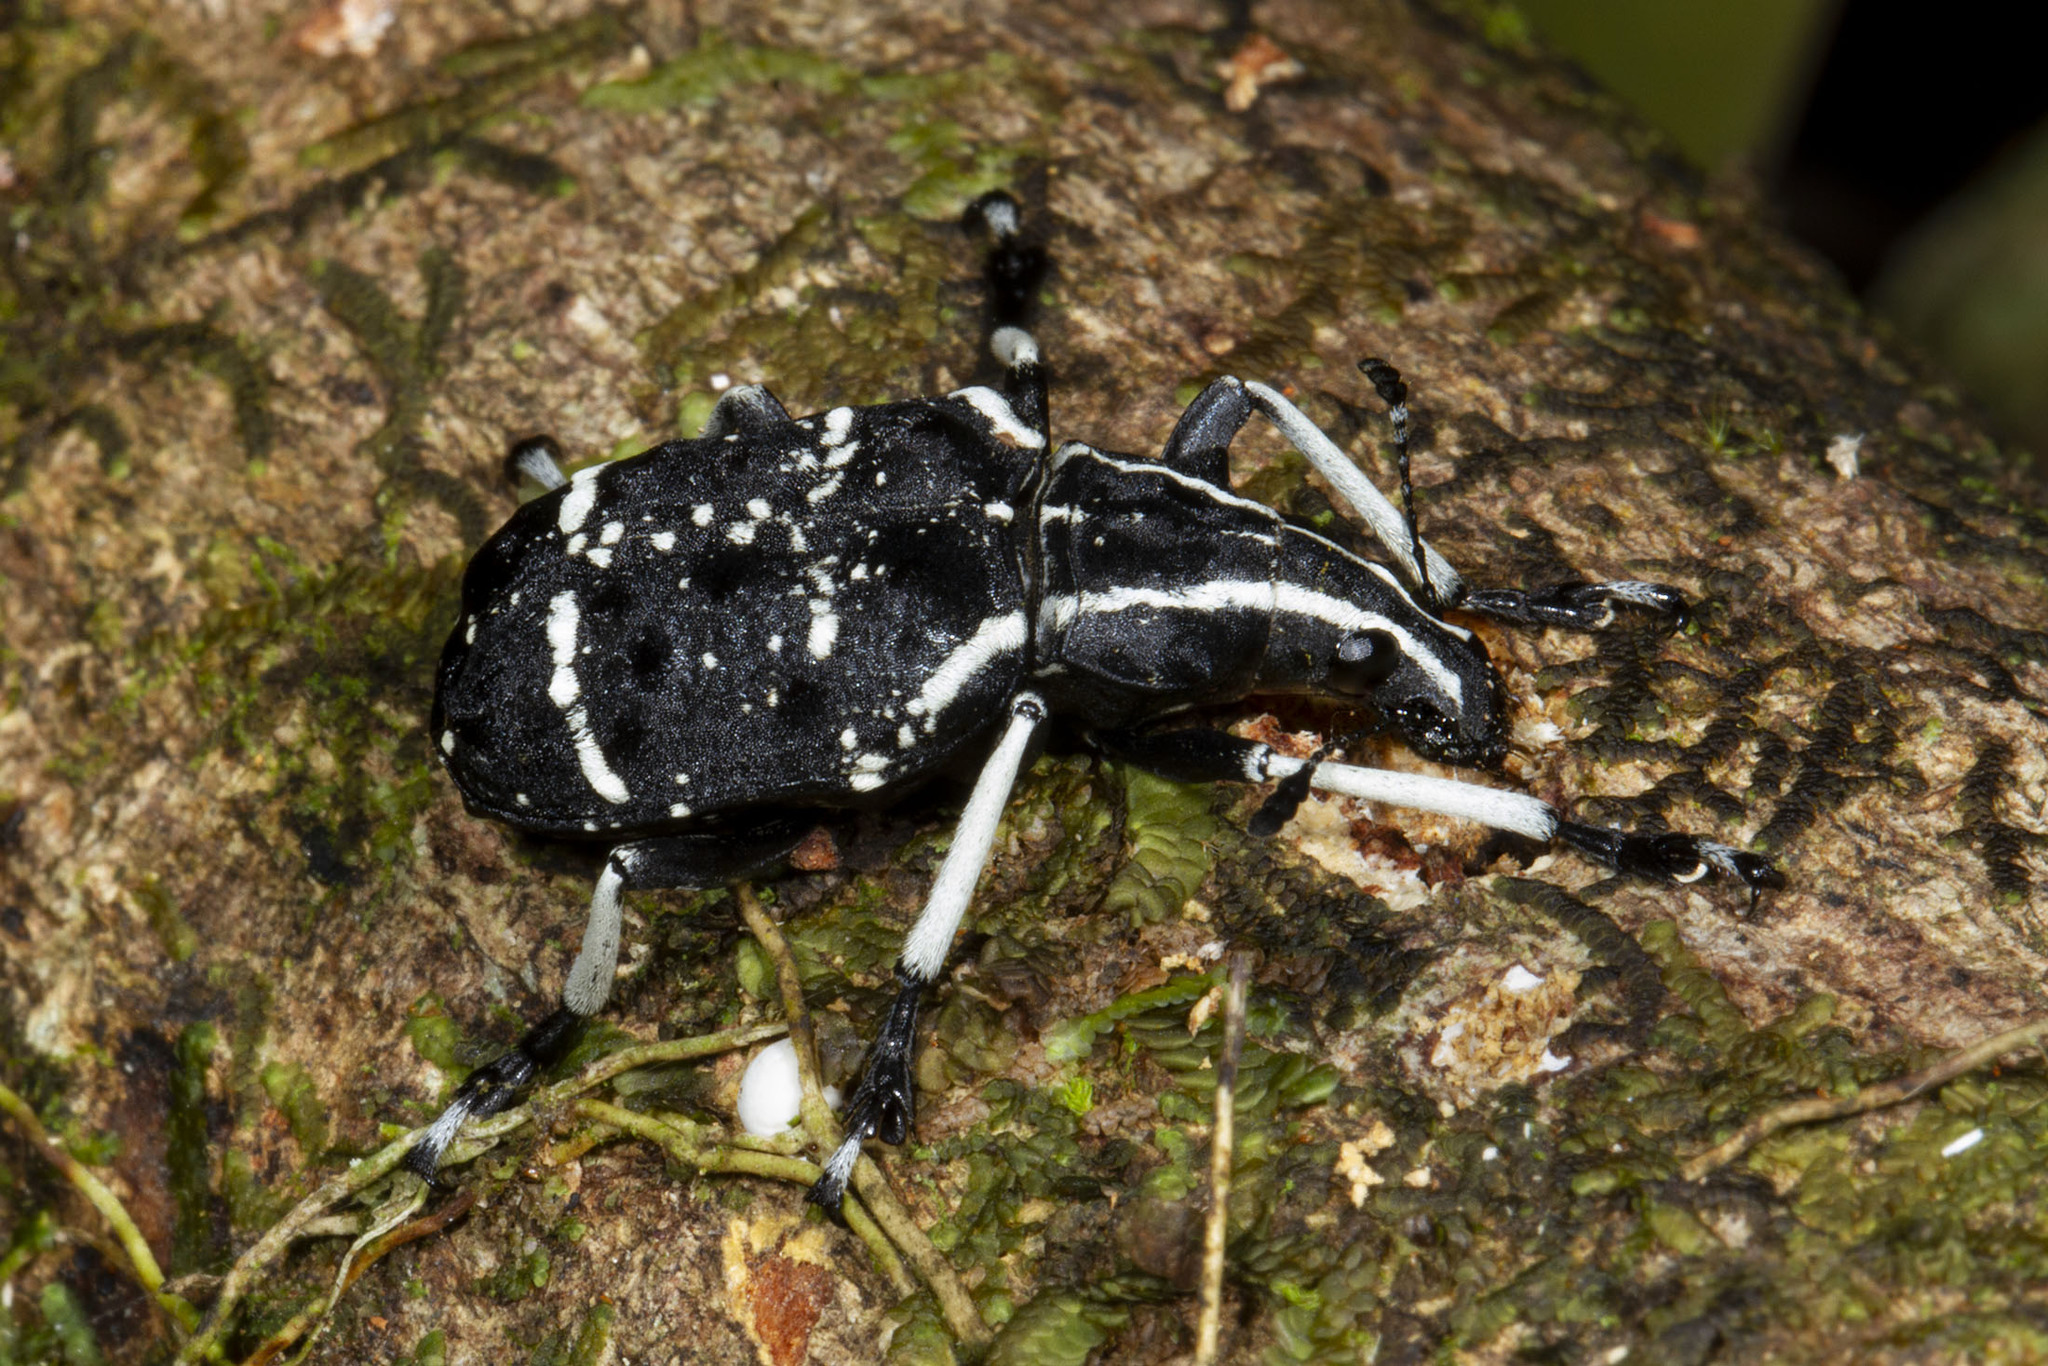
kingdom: Animalia
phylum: Arthropoda
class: Insecta
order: Coleoptera
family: Anthribidae
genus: Tophoderes
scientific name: Tophoderes frenatus
